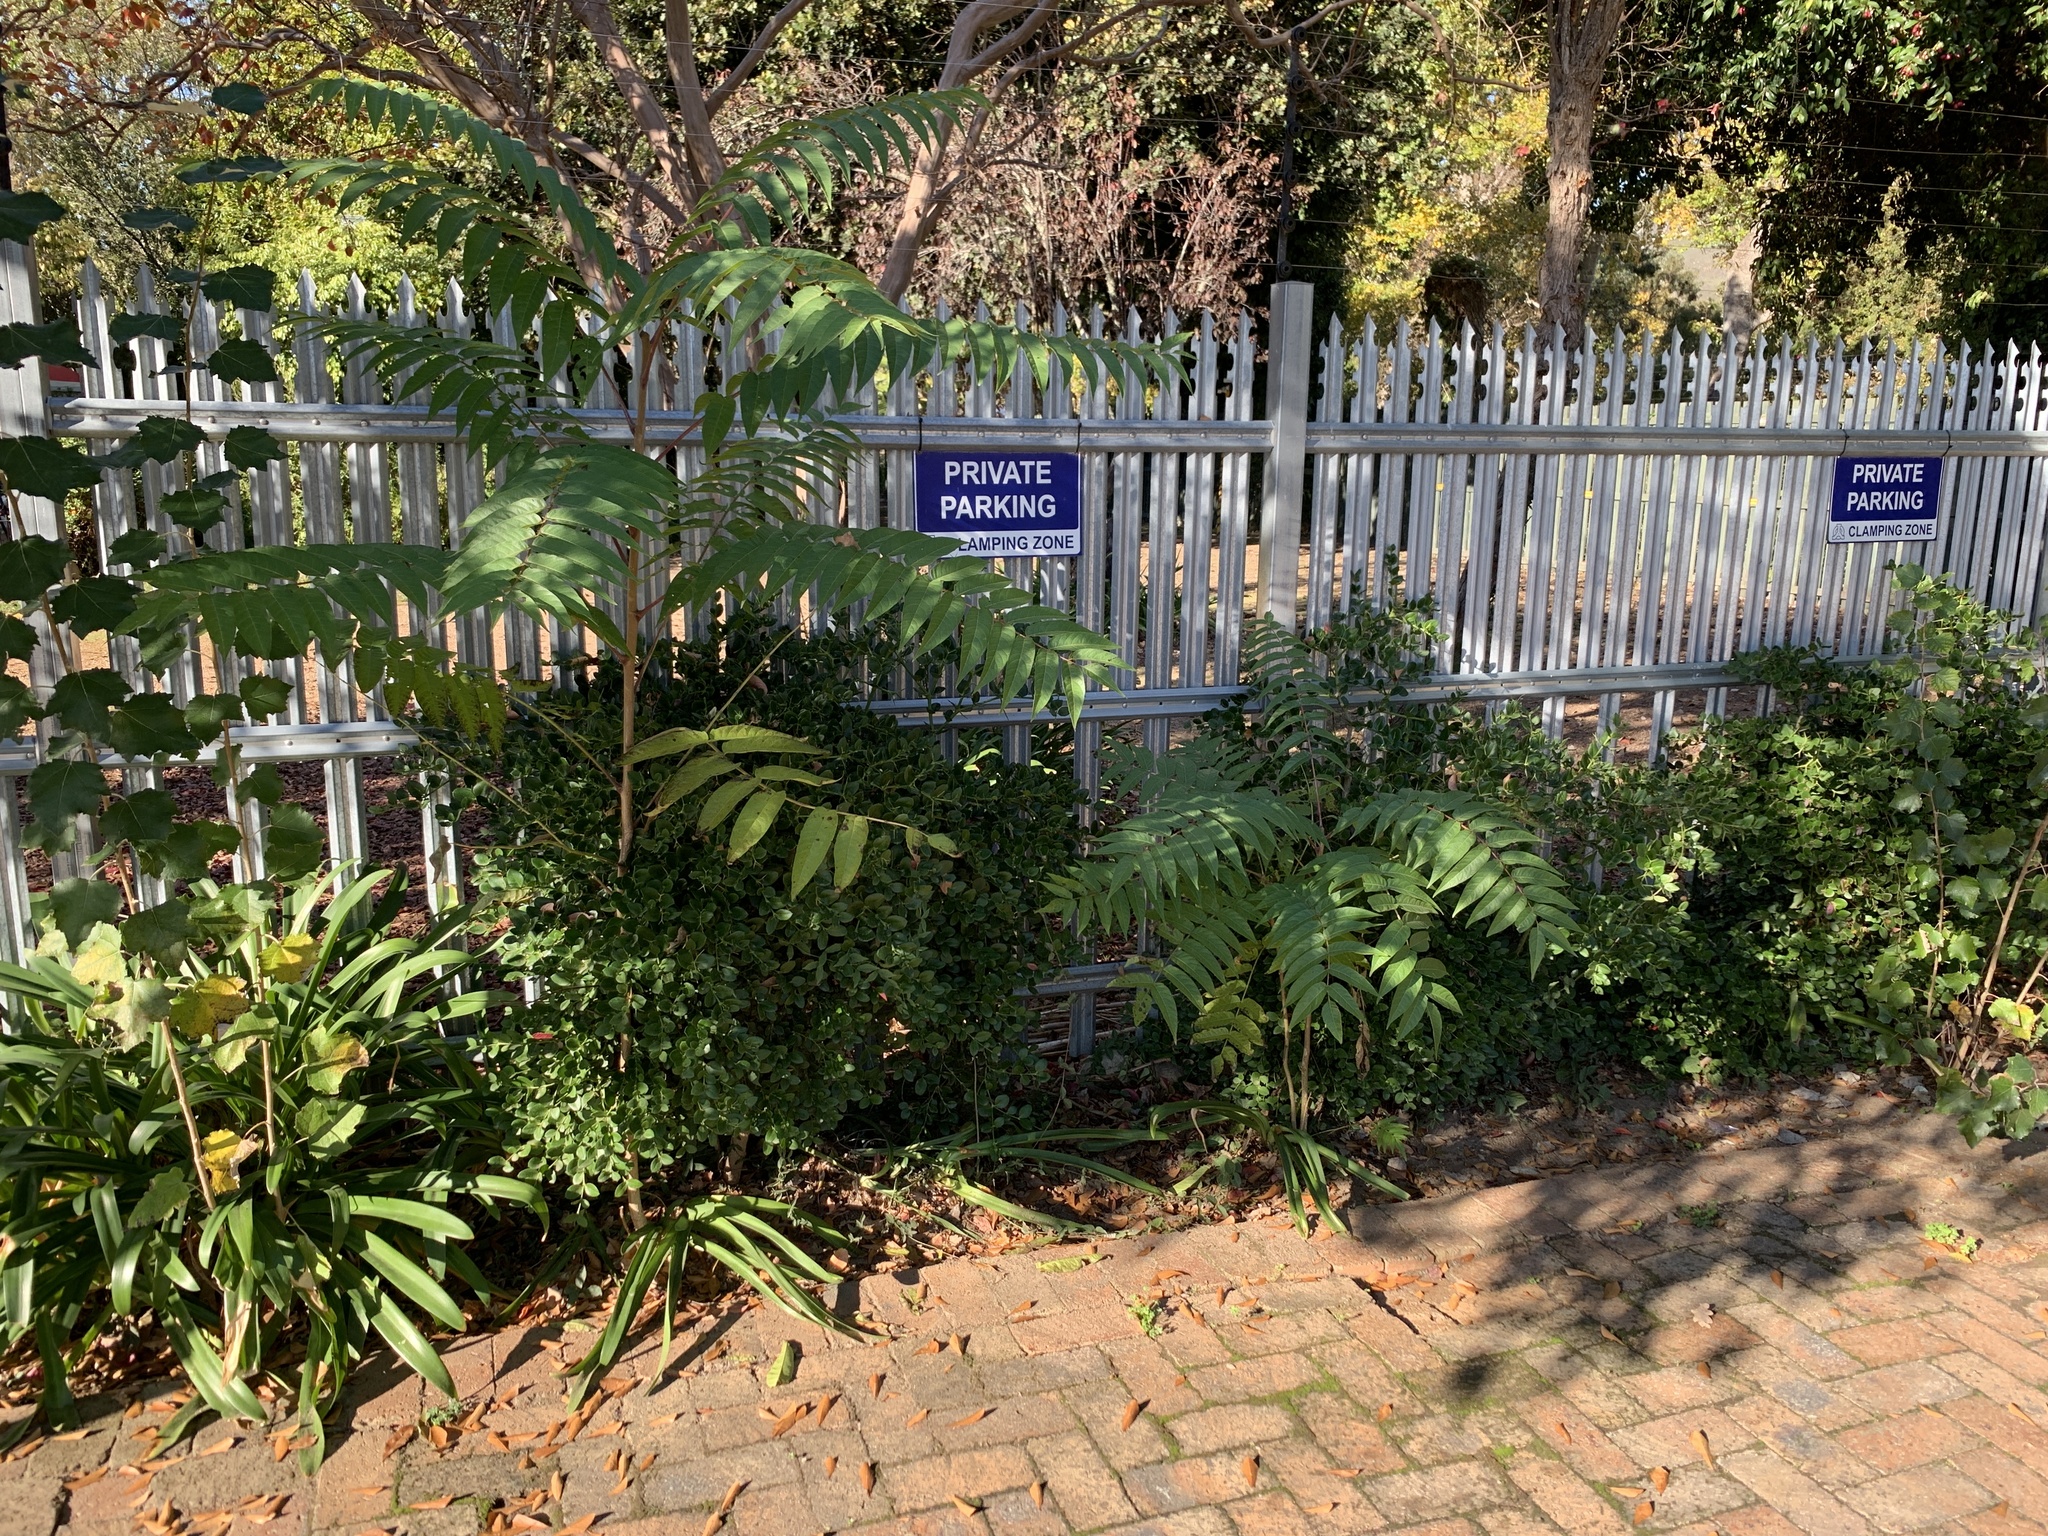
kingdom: Plantae
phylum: Tracheophyta
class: Magnoliopsida
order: Sapindales
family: Simaroubaceae
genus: Ailanthus
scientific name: Ailanthus altissima
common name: Tree-of-heaven
